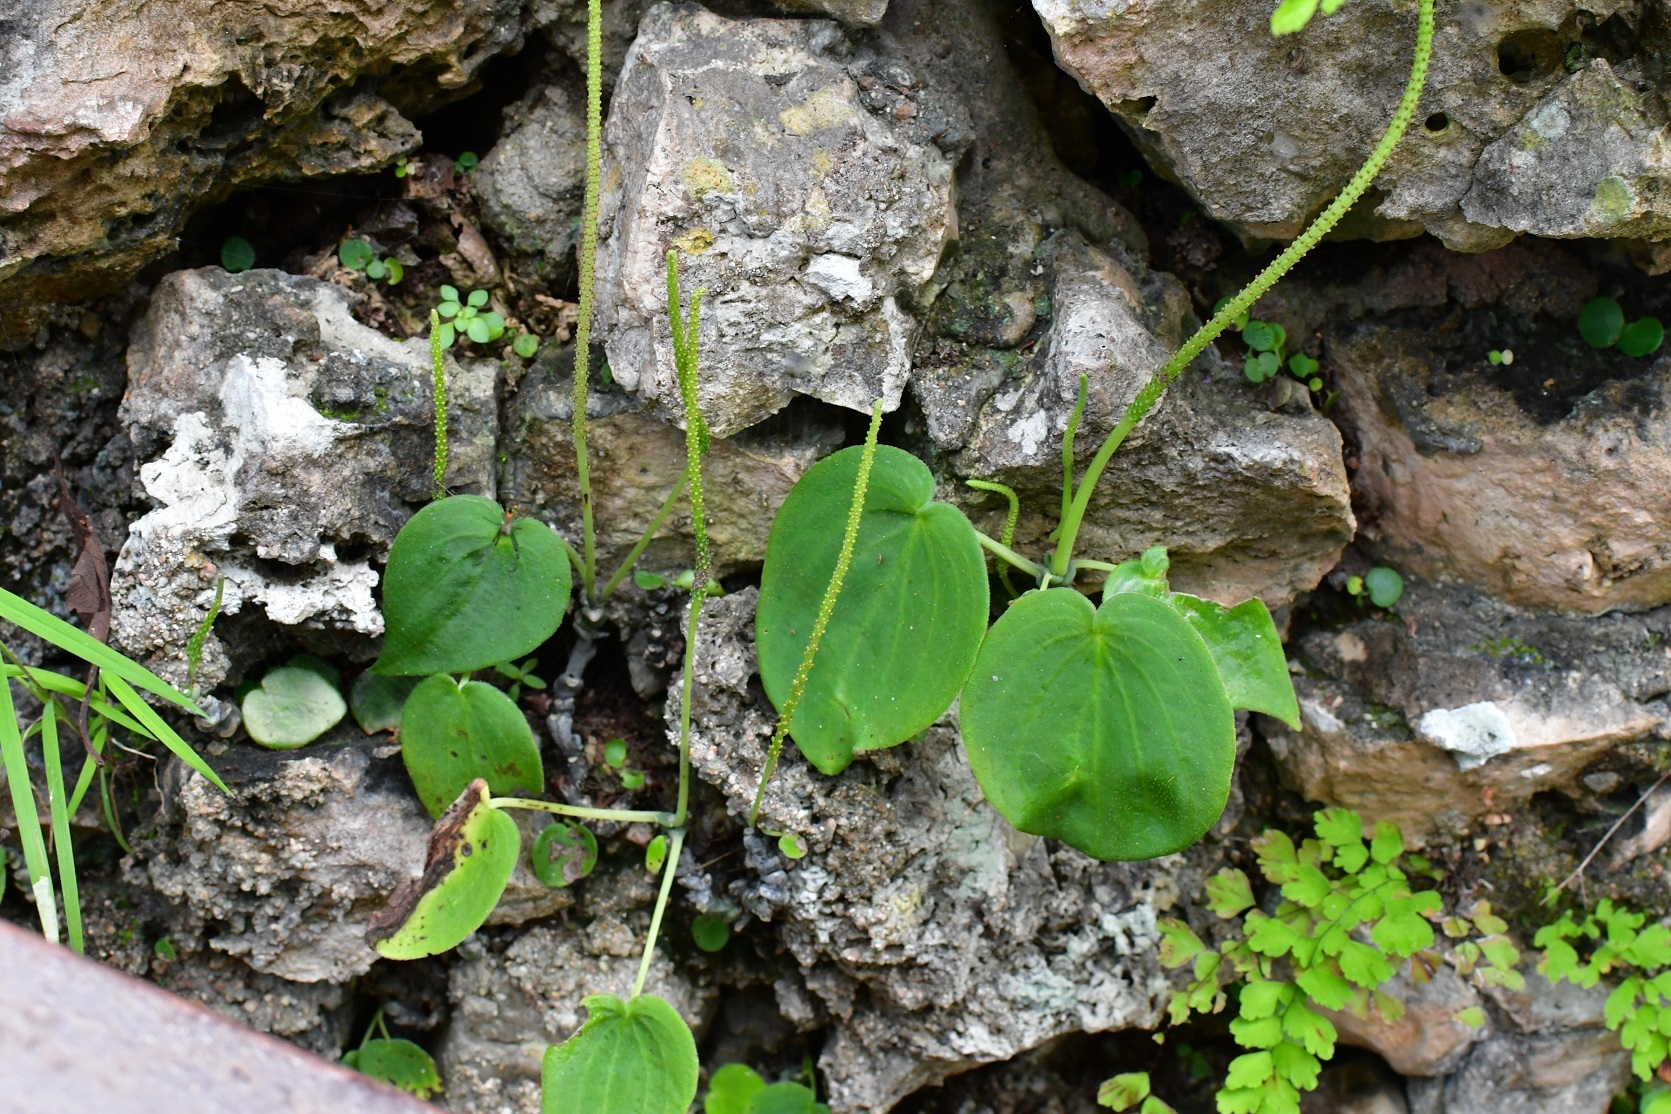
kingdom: Plantae
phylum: Tracheophyta
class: Magnoliopsida
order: Piperales
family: Piperaceae
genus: Peperomia
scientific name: Peperomia lanceolatopeltata
